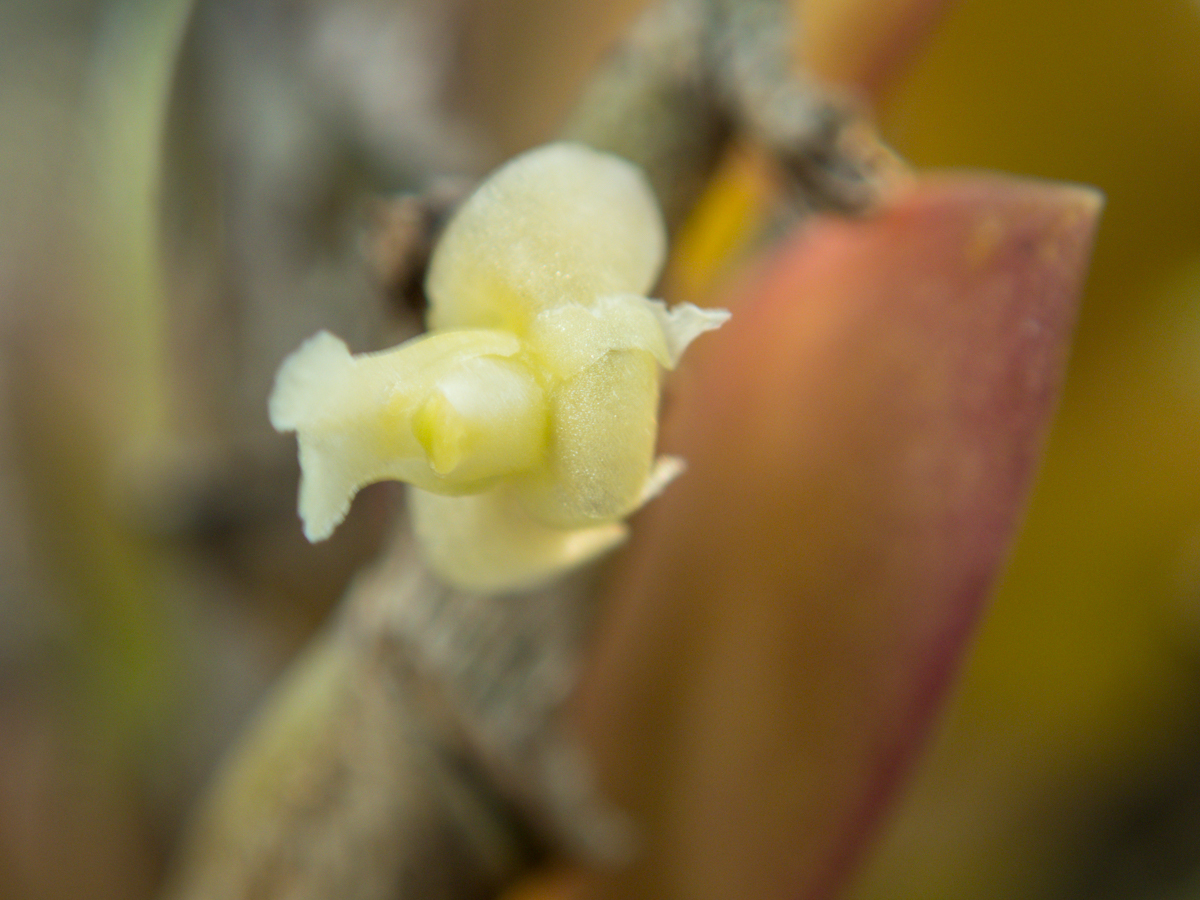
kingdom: Plantae
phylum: Tracheophyta
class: Liliopsida
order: Asparagales
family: Orchidaceae
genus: Dendrobium
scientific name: Dendrobium aloifolium
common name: Aloe-like dendrobium
